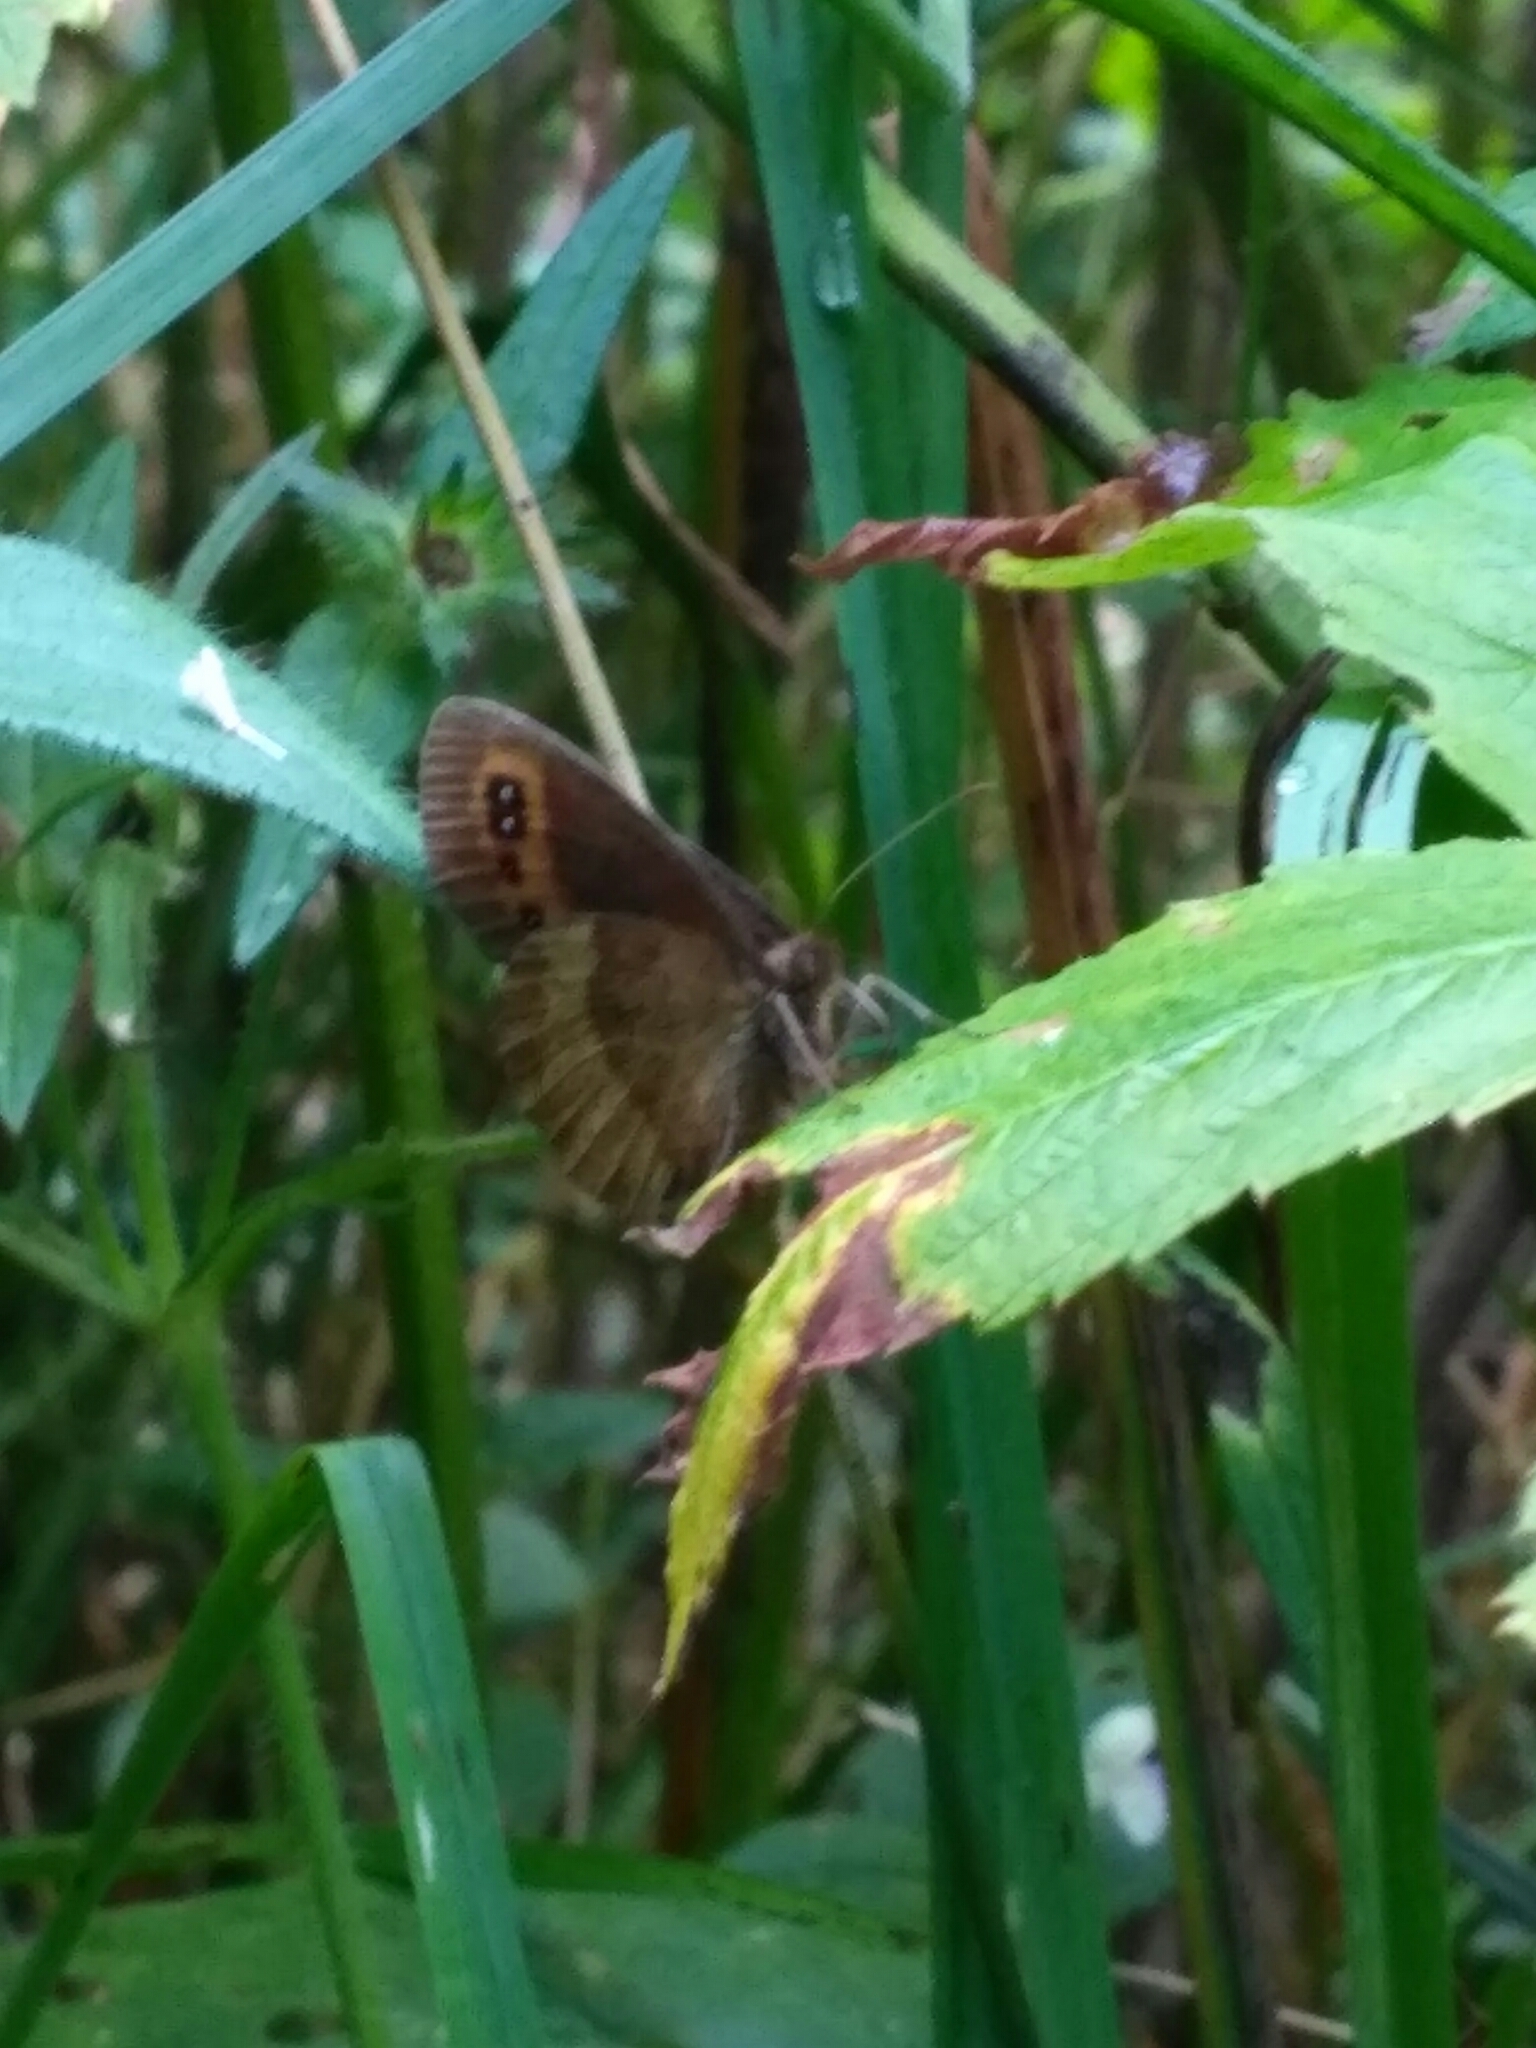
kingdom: Animalia
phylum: Arthropoda
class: Insecta
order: Lepidoptera
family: Nymphalidae
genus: Erebia
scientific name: Erebia aethiops
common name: Scotch argus
